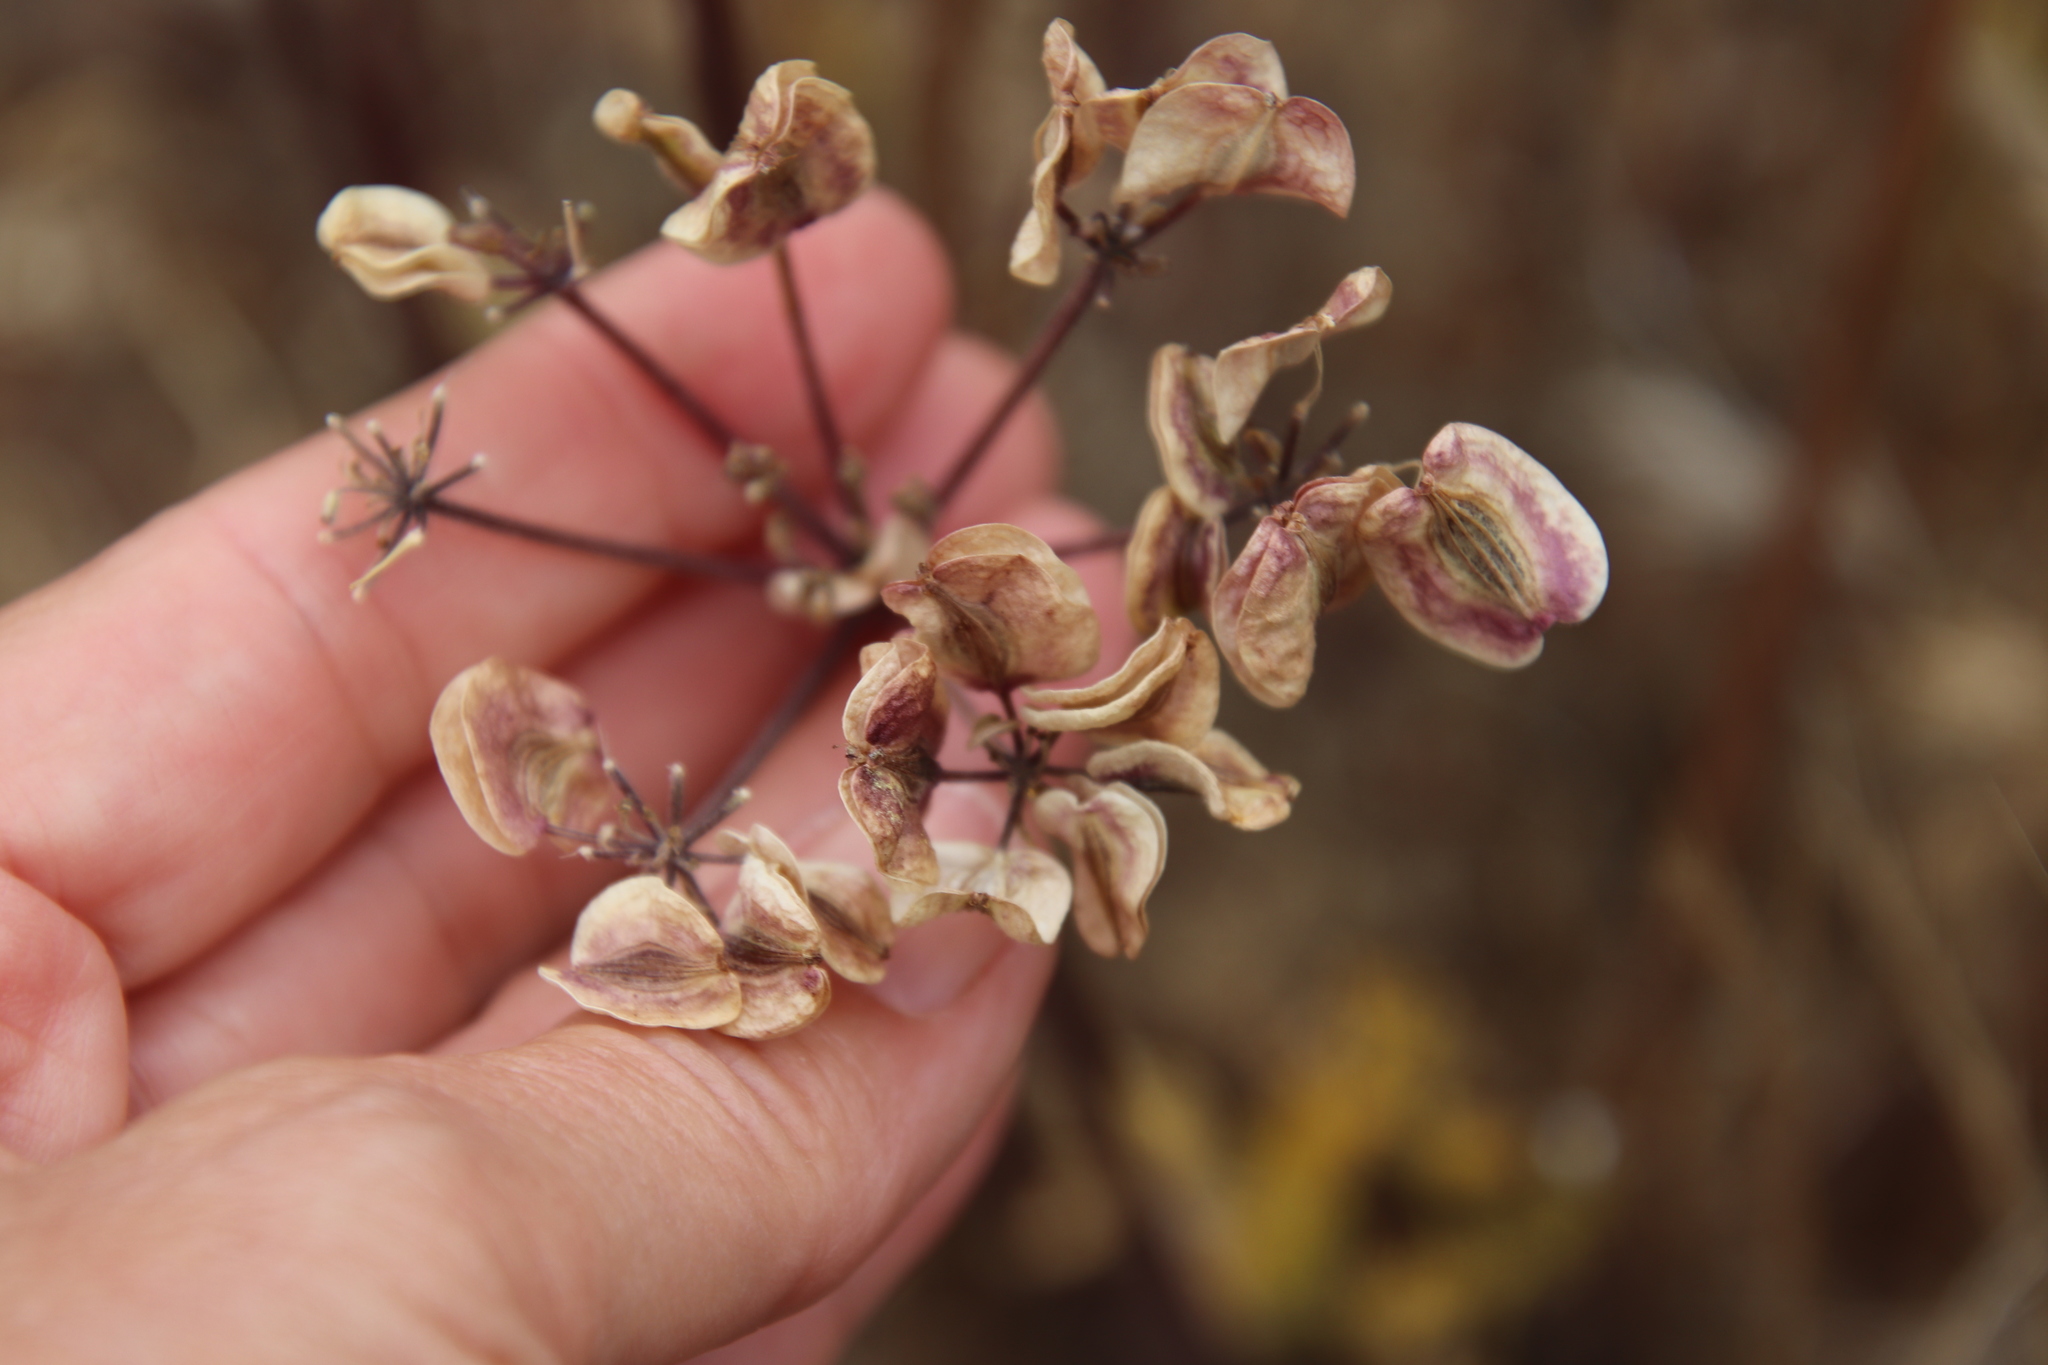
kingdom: Plantae
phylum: Tracheophyta
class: Magnoliopsida
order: Apiales
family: Apiaceae
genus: Lomatium
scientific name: Lomatium dasycarpum
